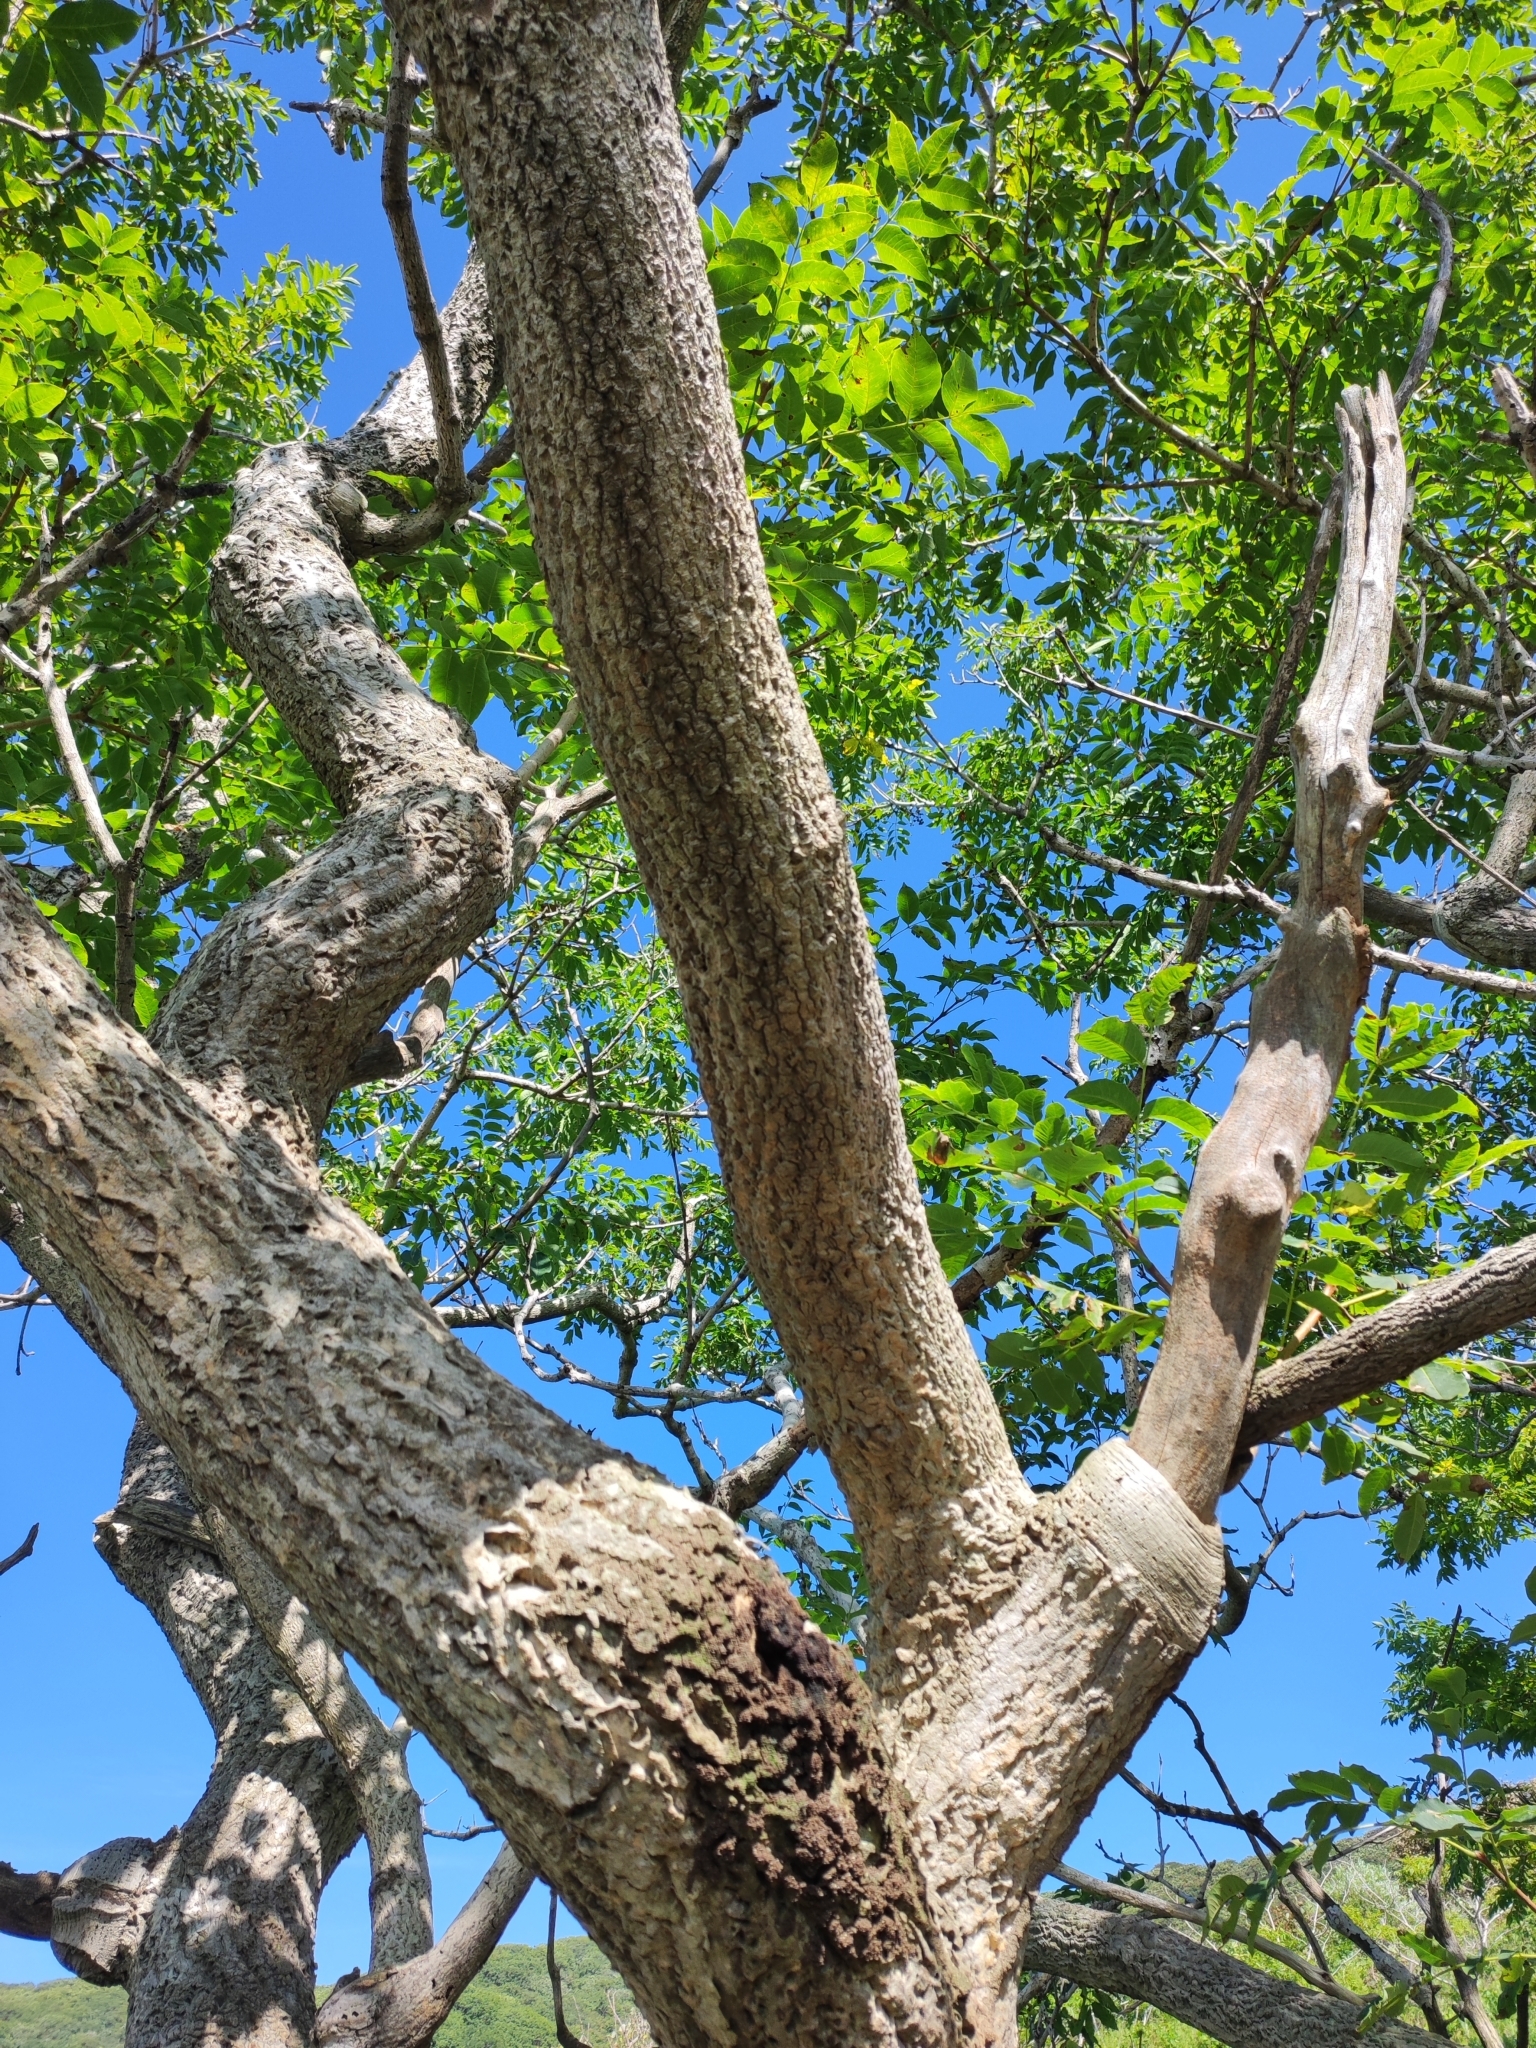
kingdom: Plantae
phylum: Tracheophyta
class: Magnoliopsida
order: Sapindales
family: Rutaceae
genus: Phellodendron
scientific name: Phellodendron amurense
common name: Amur corktree
